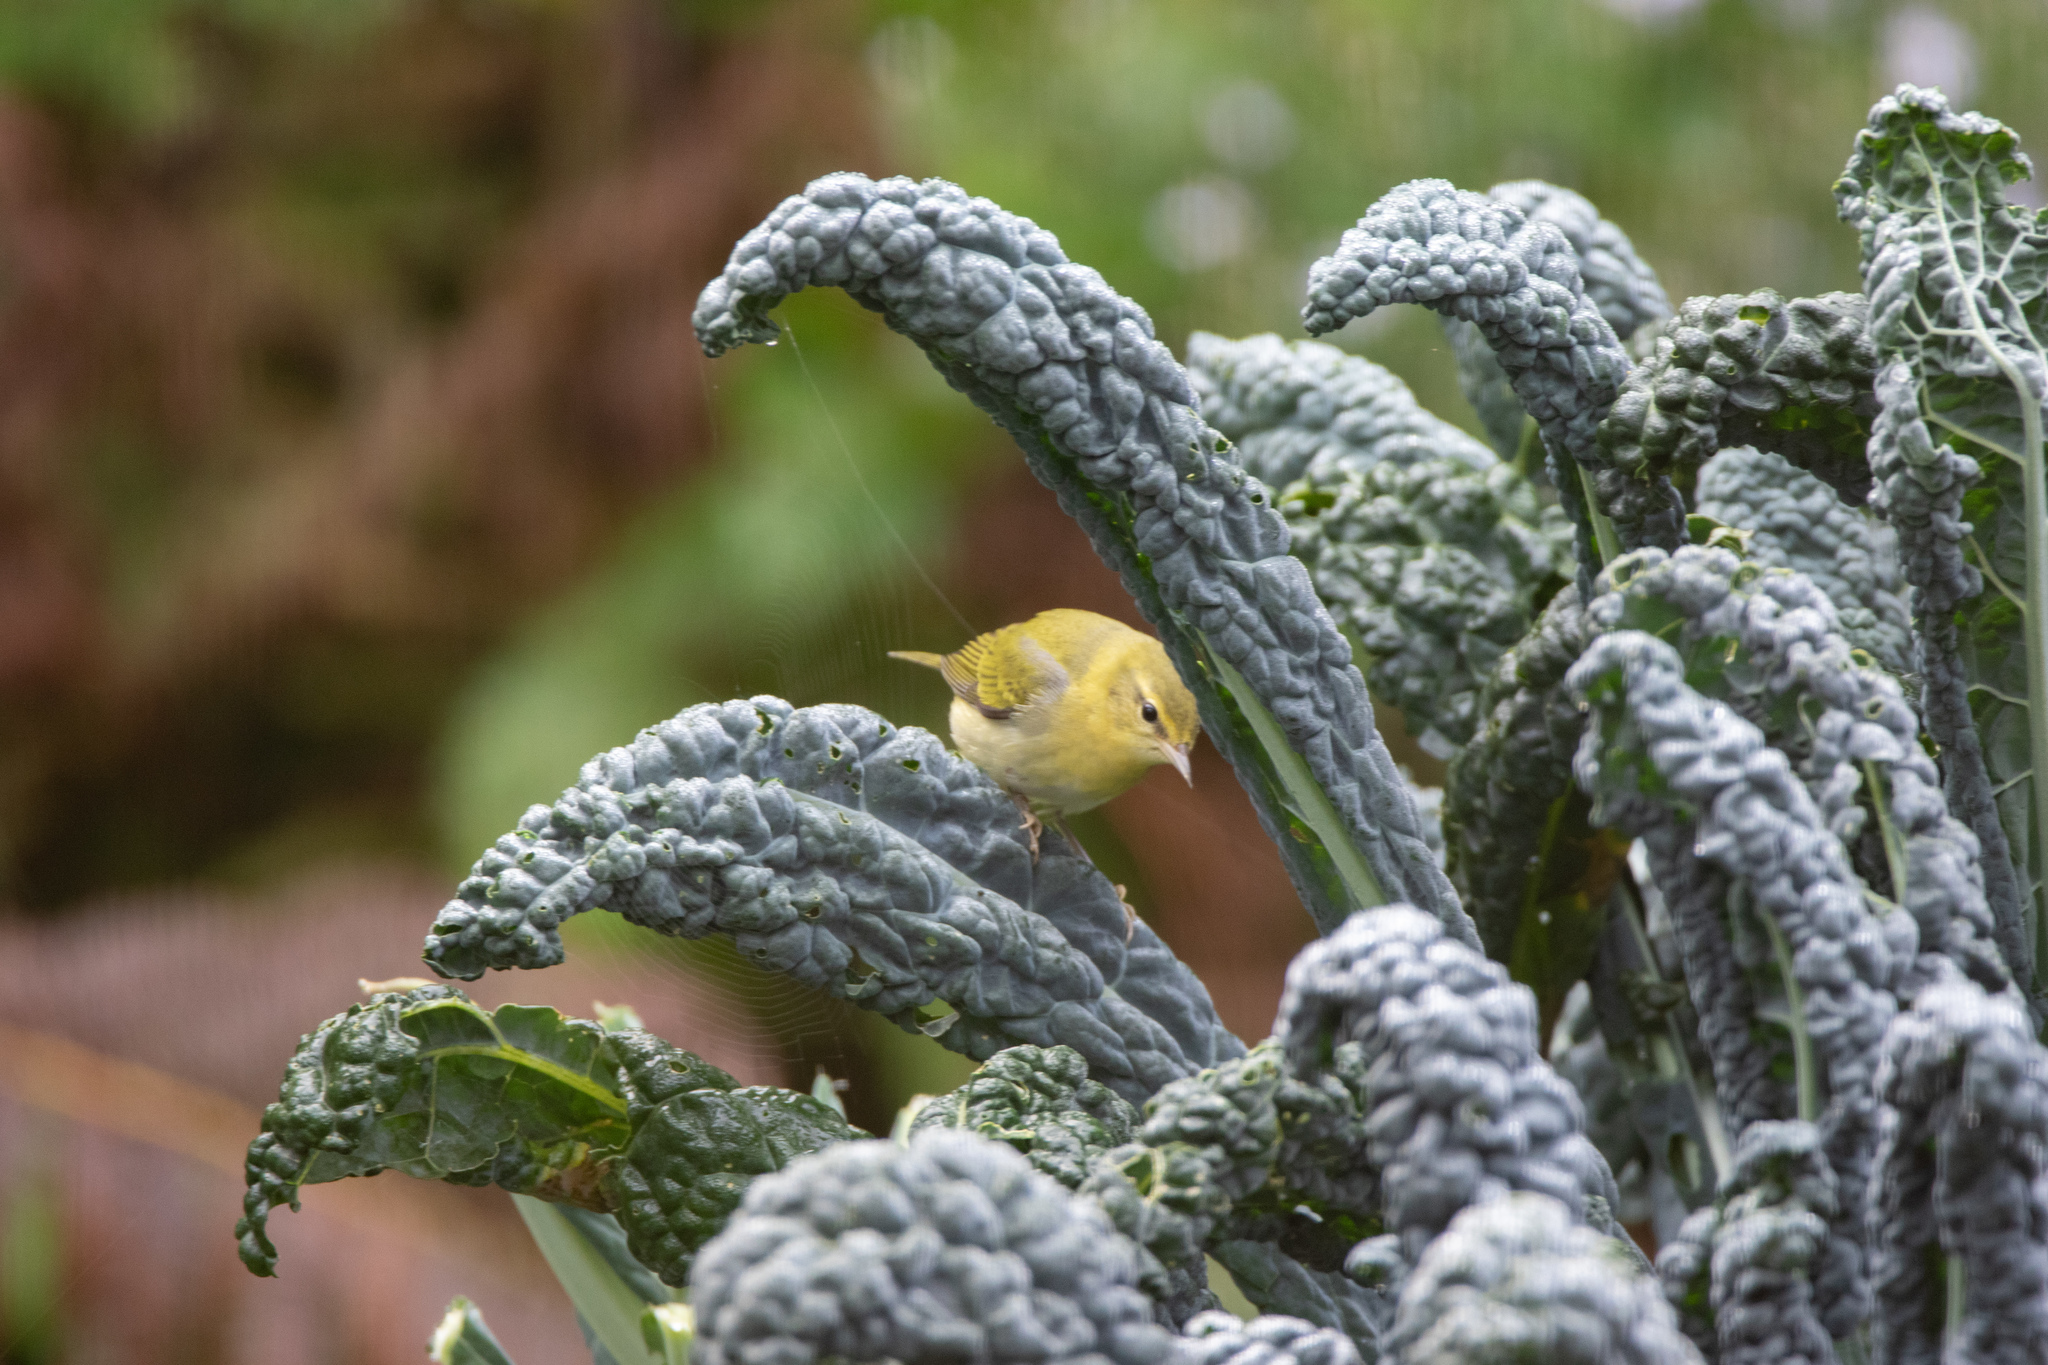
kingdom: Animalia
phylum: Chordata
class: Aves
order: Passeriformes
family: Parulidae
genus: Leiothlypis
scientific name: Leiothlypis peregrina
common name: Tennessee warbler
